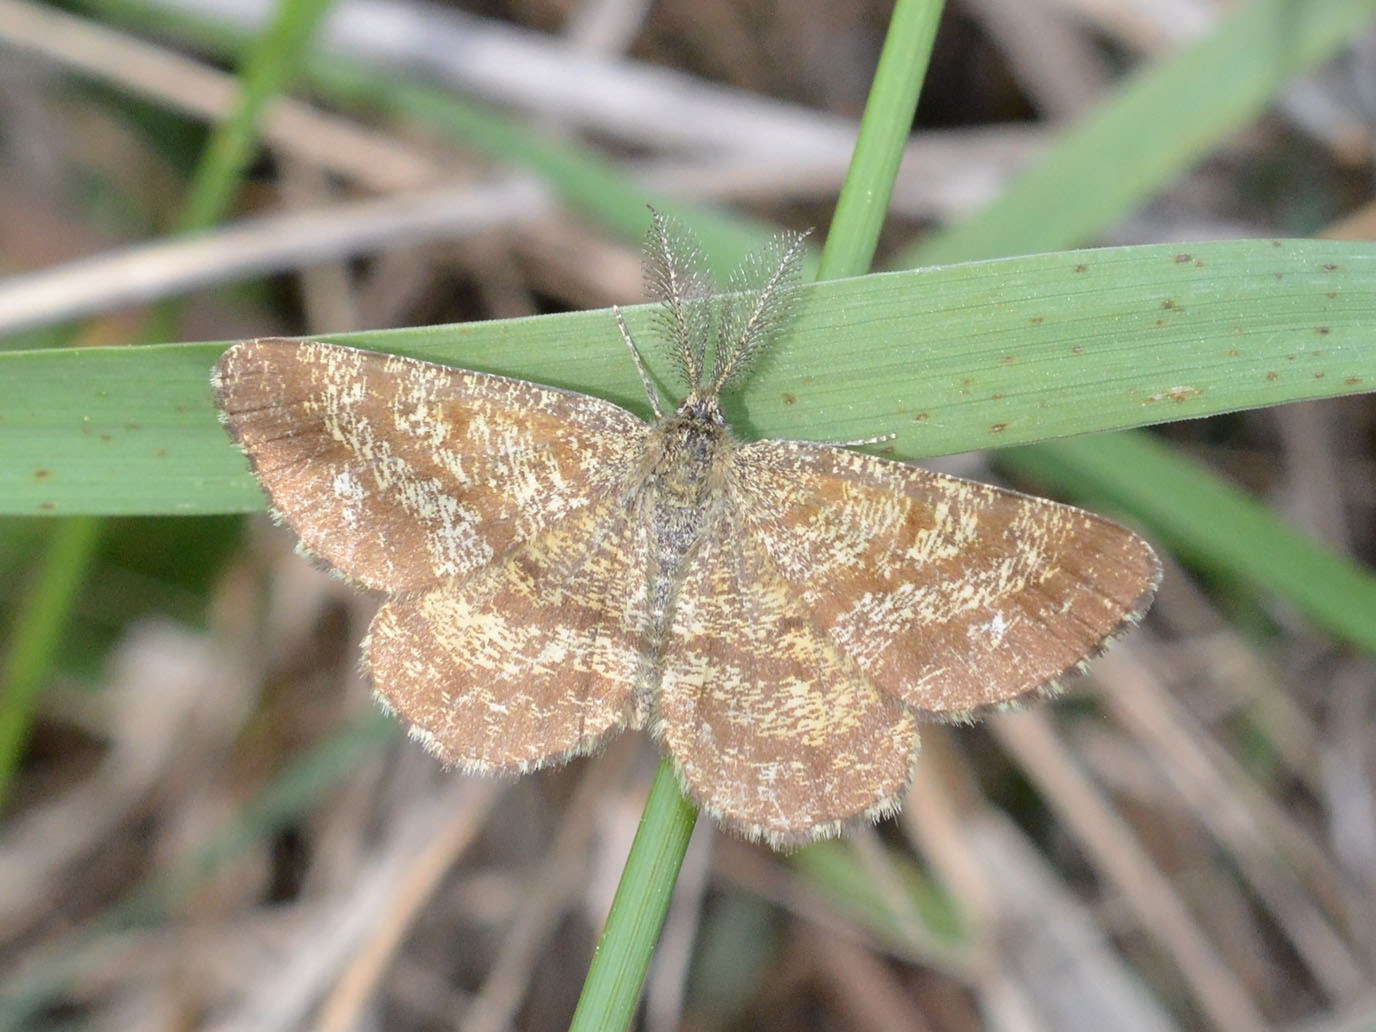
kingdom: Animalia
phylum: Arthropoda
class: Insecta
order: Lepidoptera
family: Geometridae
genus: Ematurga
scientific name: Ematurga atomaria
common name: Common heath
